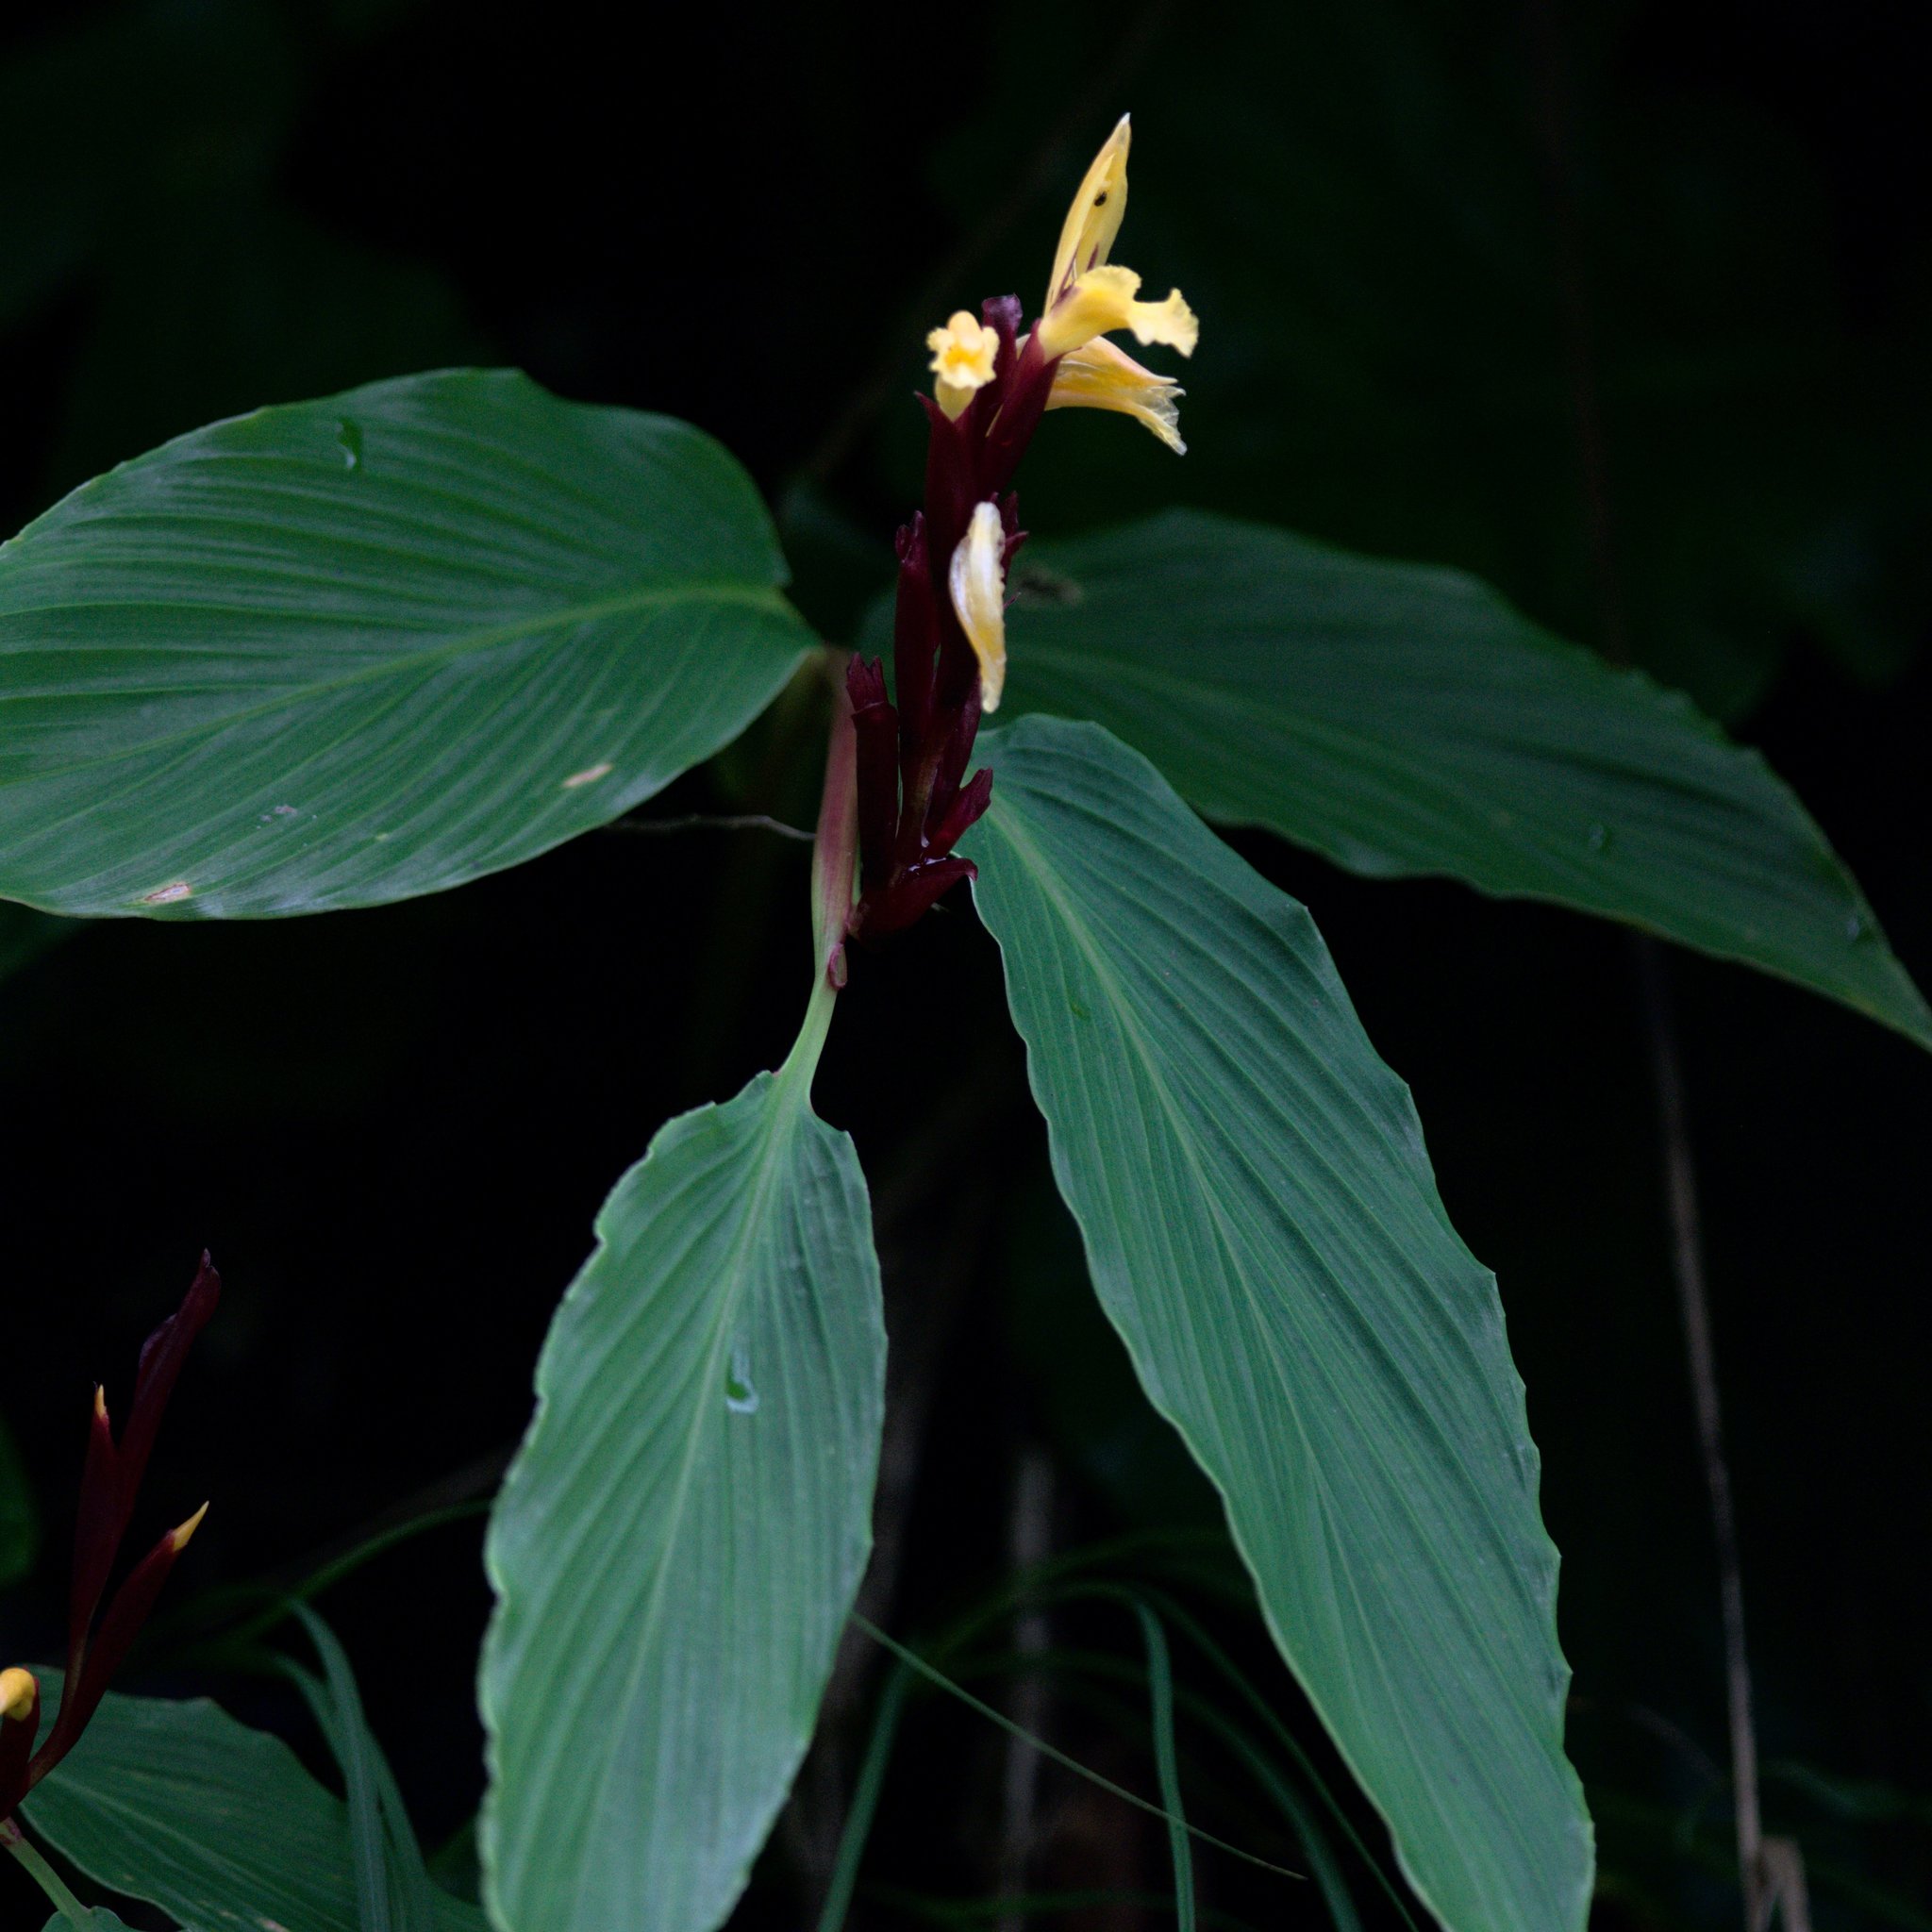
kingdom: Plantae
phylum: Tracheophyta
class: Liliopsida
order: Zingiberales
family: Zingiberaceae
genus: Cautleya
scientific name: Cautleya spicata
